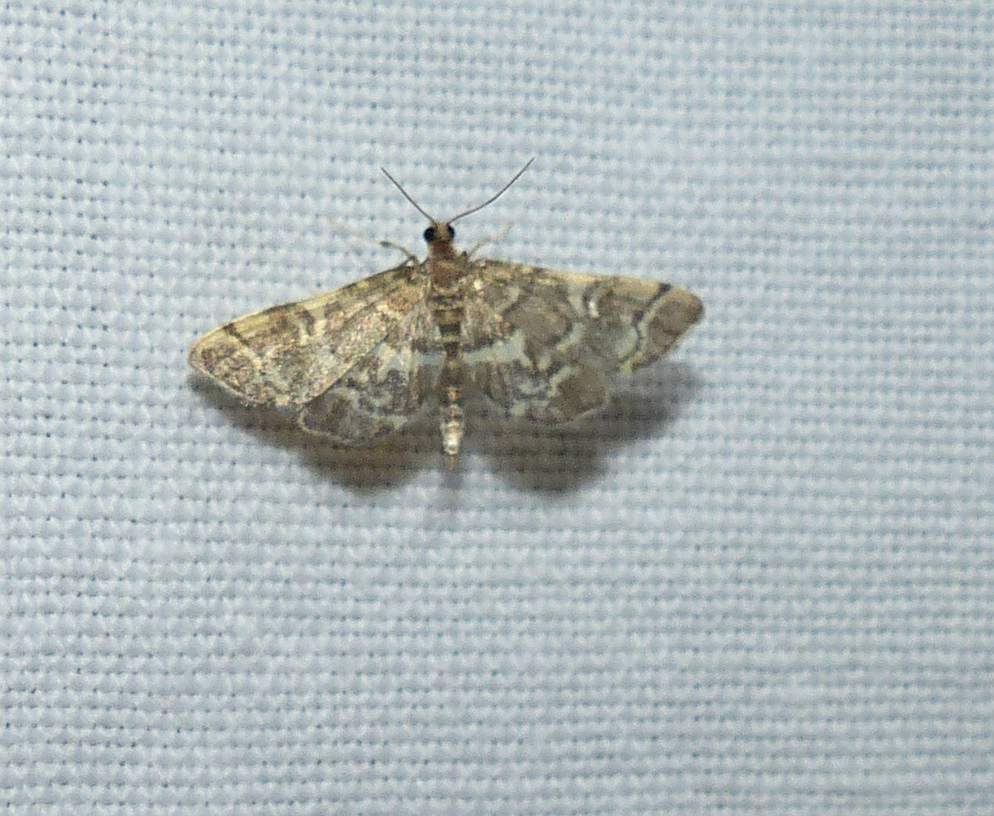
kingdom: Animalia
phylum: Arthropoda
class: Insecta
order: Lepidoptera
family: Crambidae
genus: Anageshna
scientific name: Anageshna primordialis
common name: Yellow-spotted webworm moth
